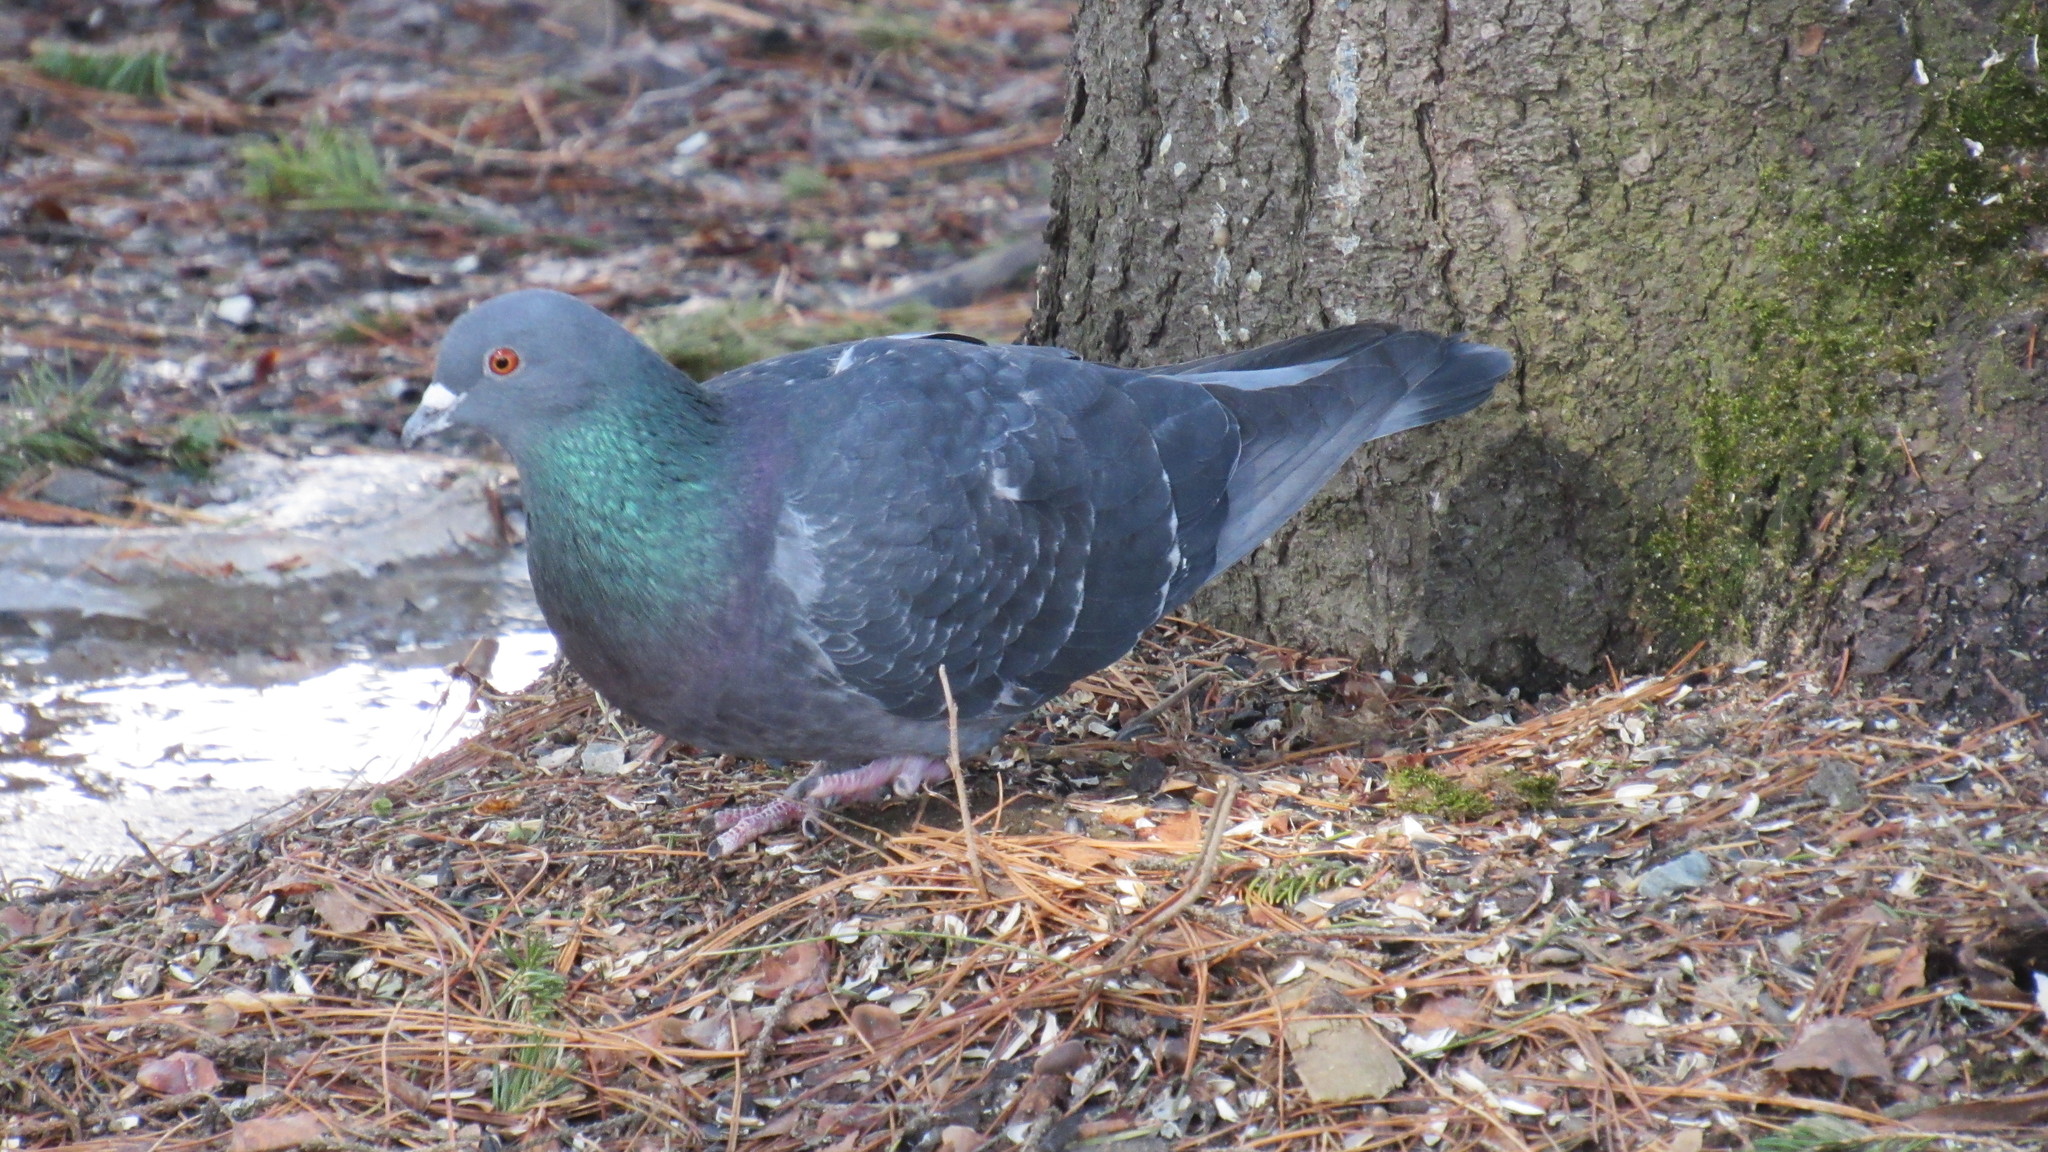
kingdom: Animalia
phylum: Chordata
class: Aves
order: Columbiformes
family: Columbidae
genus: Columba
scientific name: Columba livia
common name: Rock pigeon
